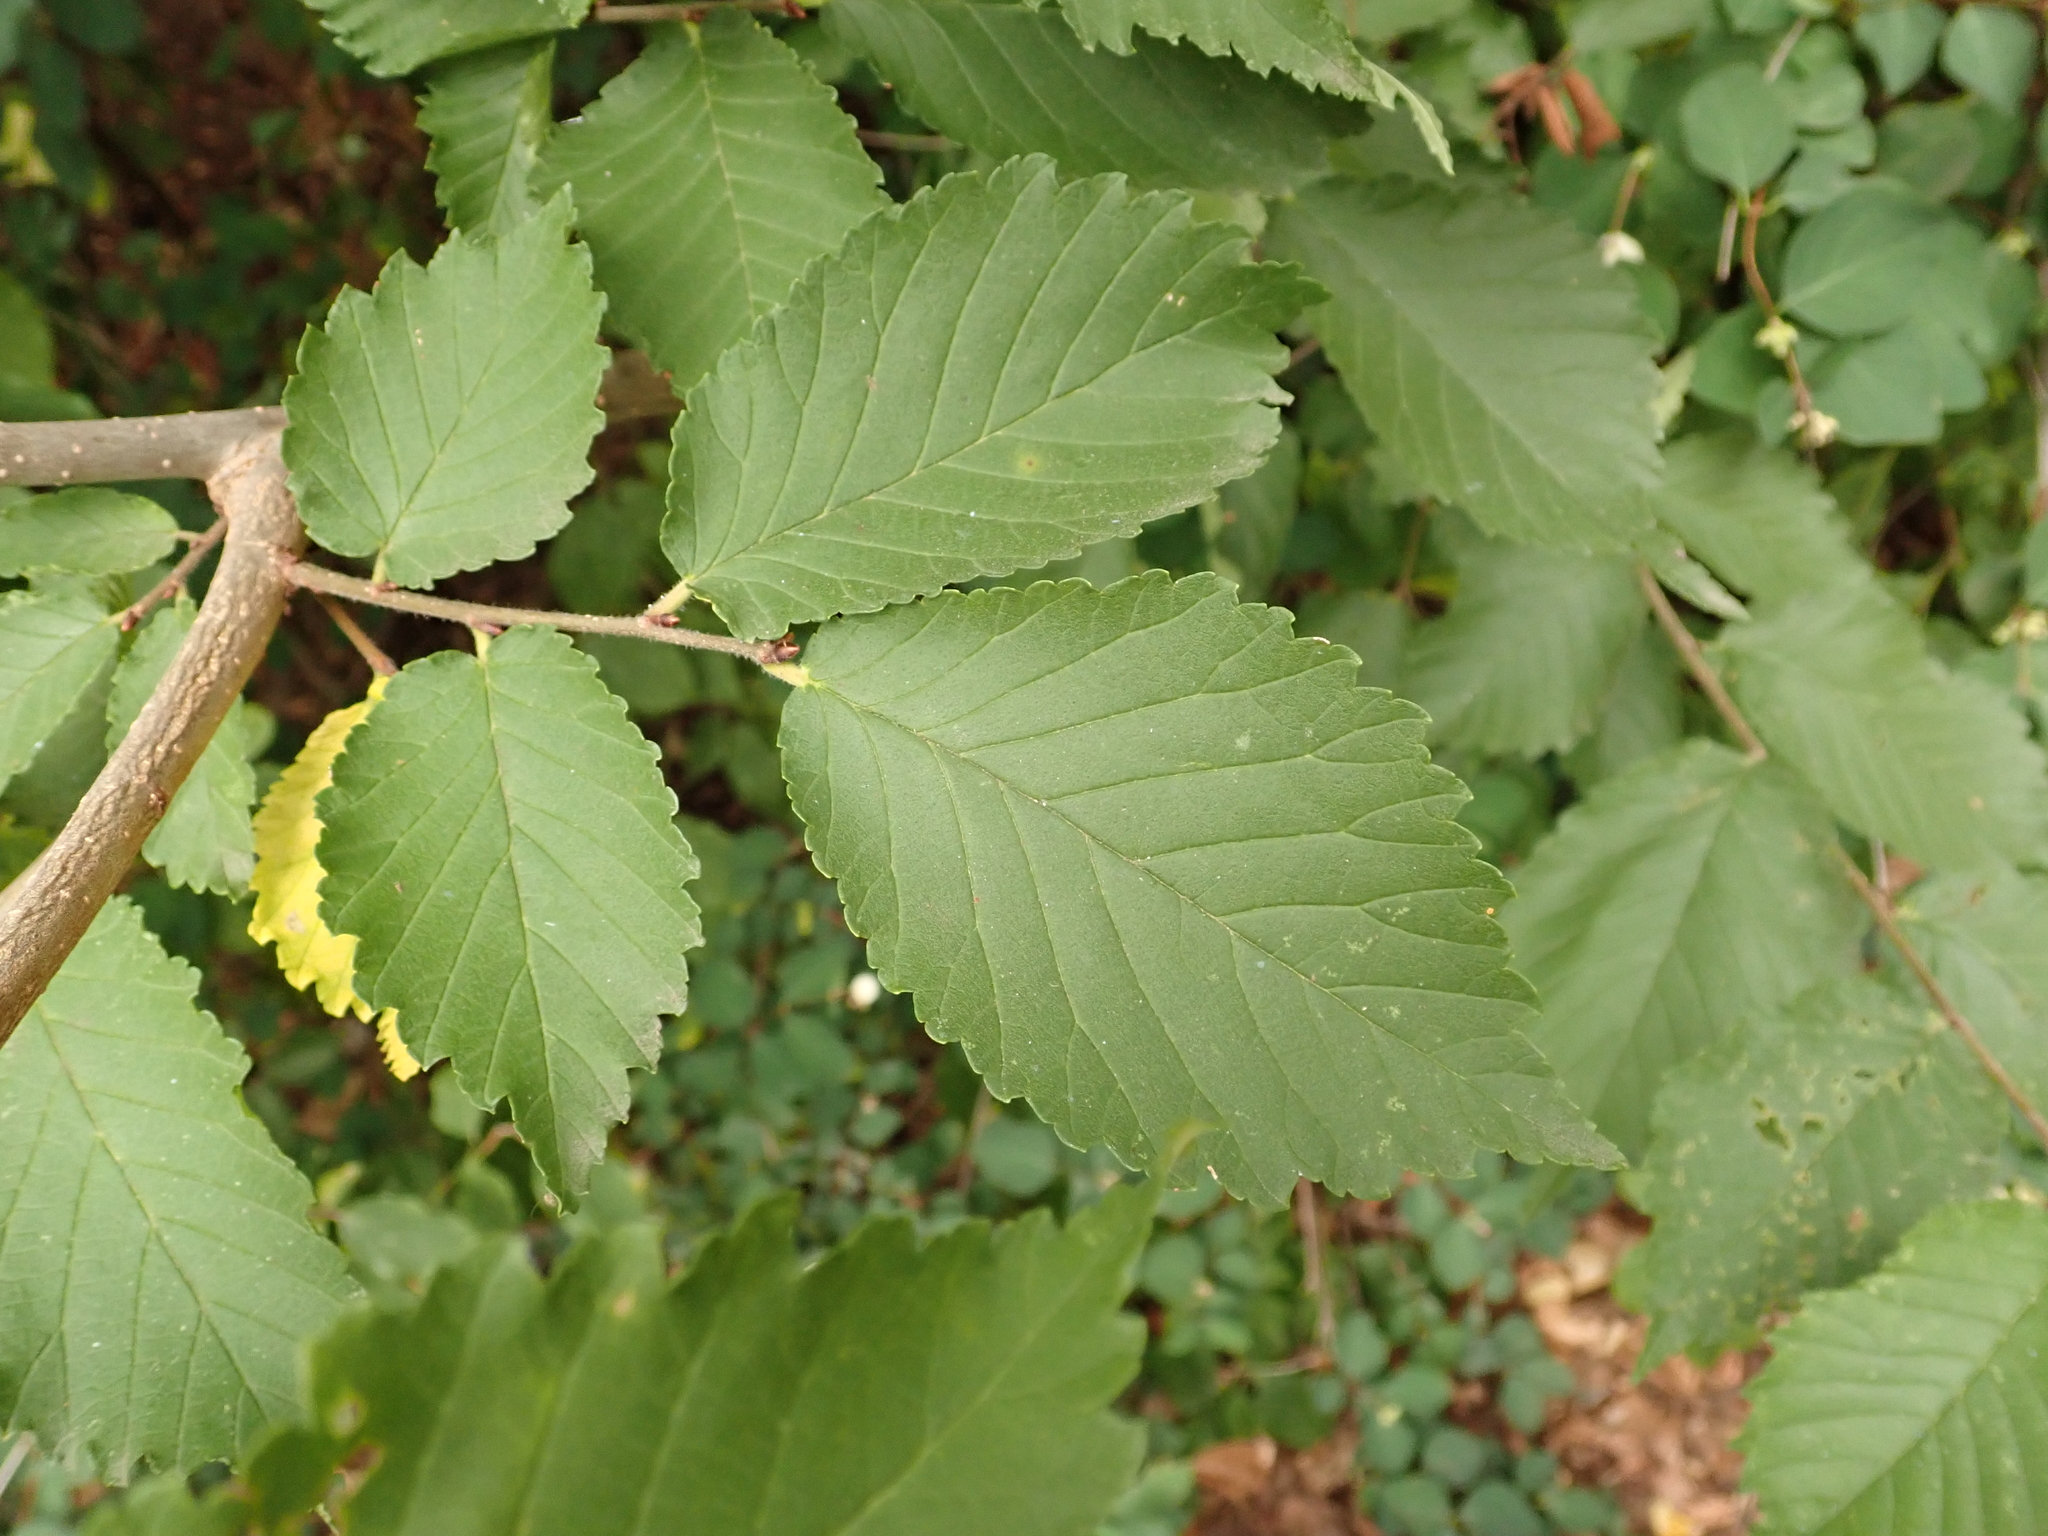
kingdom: Plantae
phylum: Tracheophyta
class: Magnoliopsida
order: Rosales
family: Ulmaceae
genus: Ulmus
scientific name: Ulmus minor
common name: Small-leaved elm
